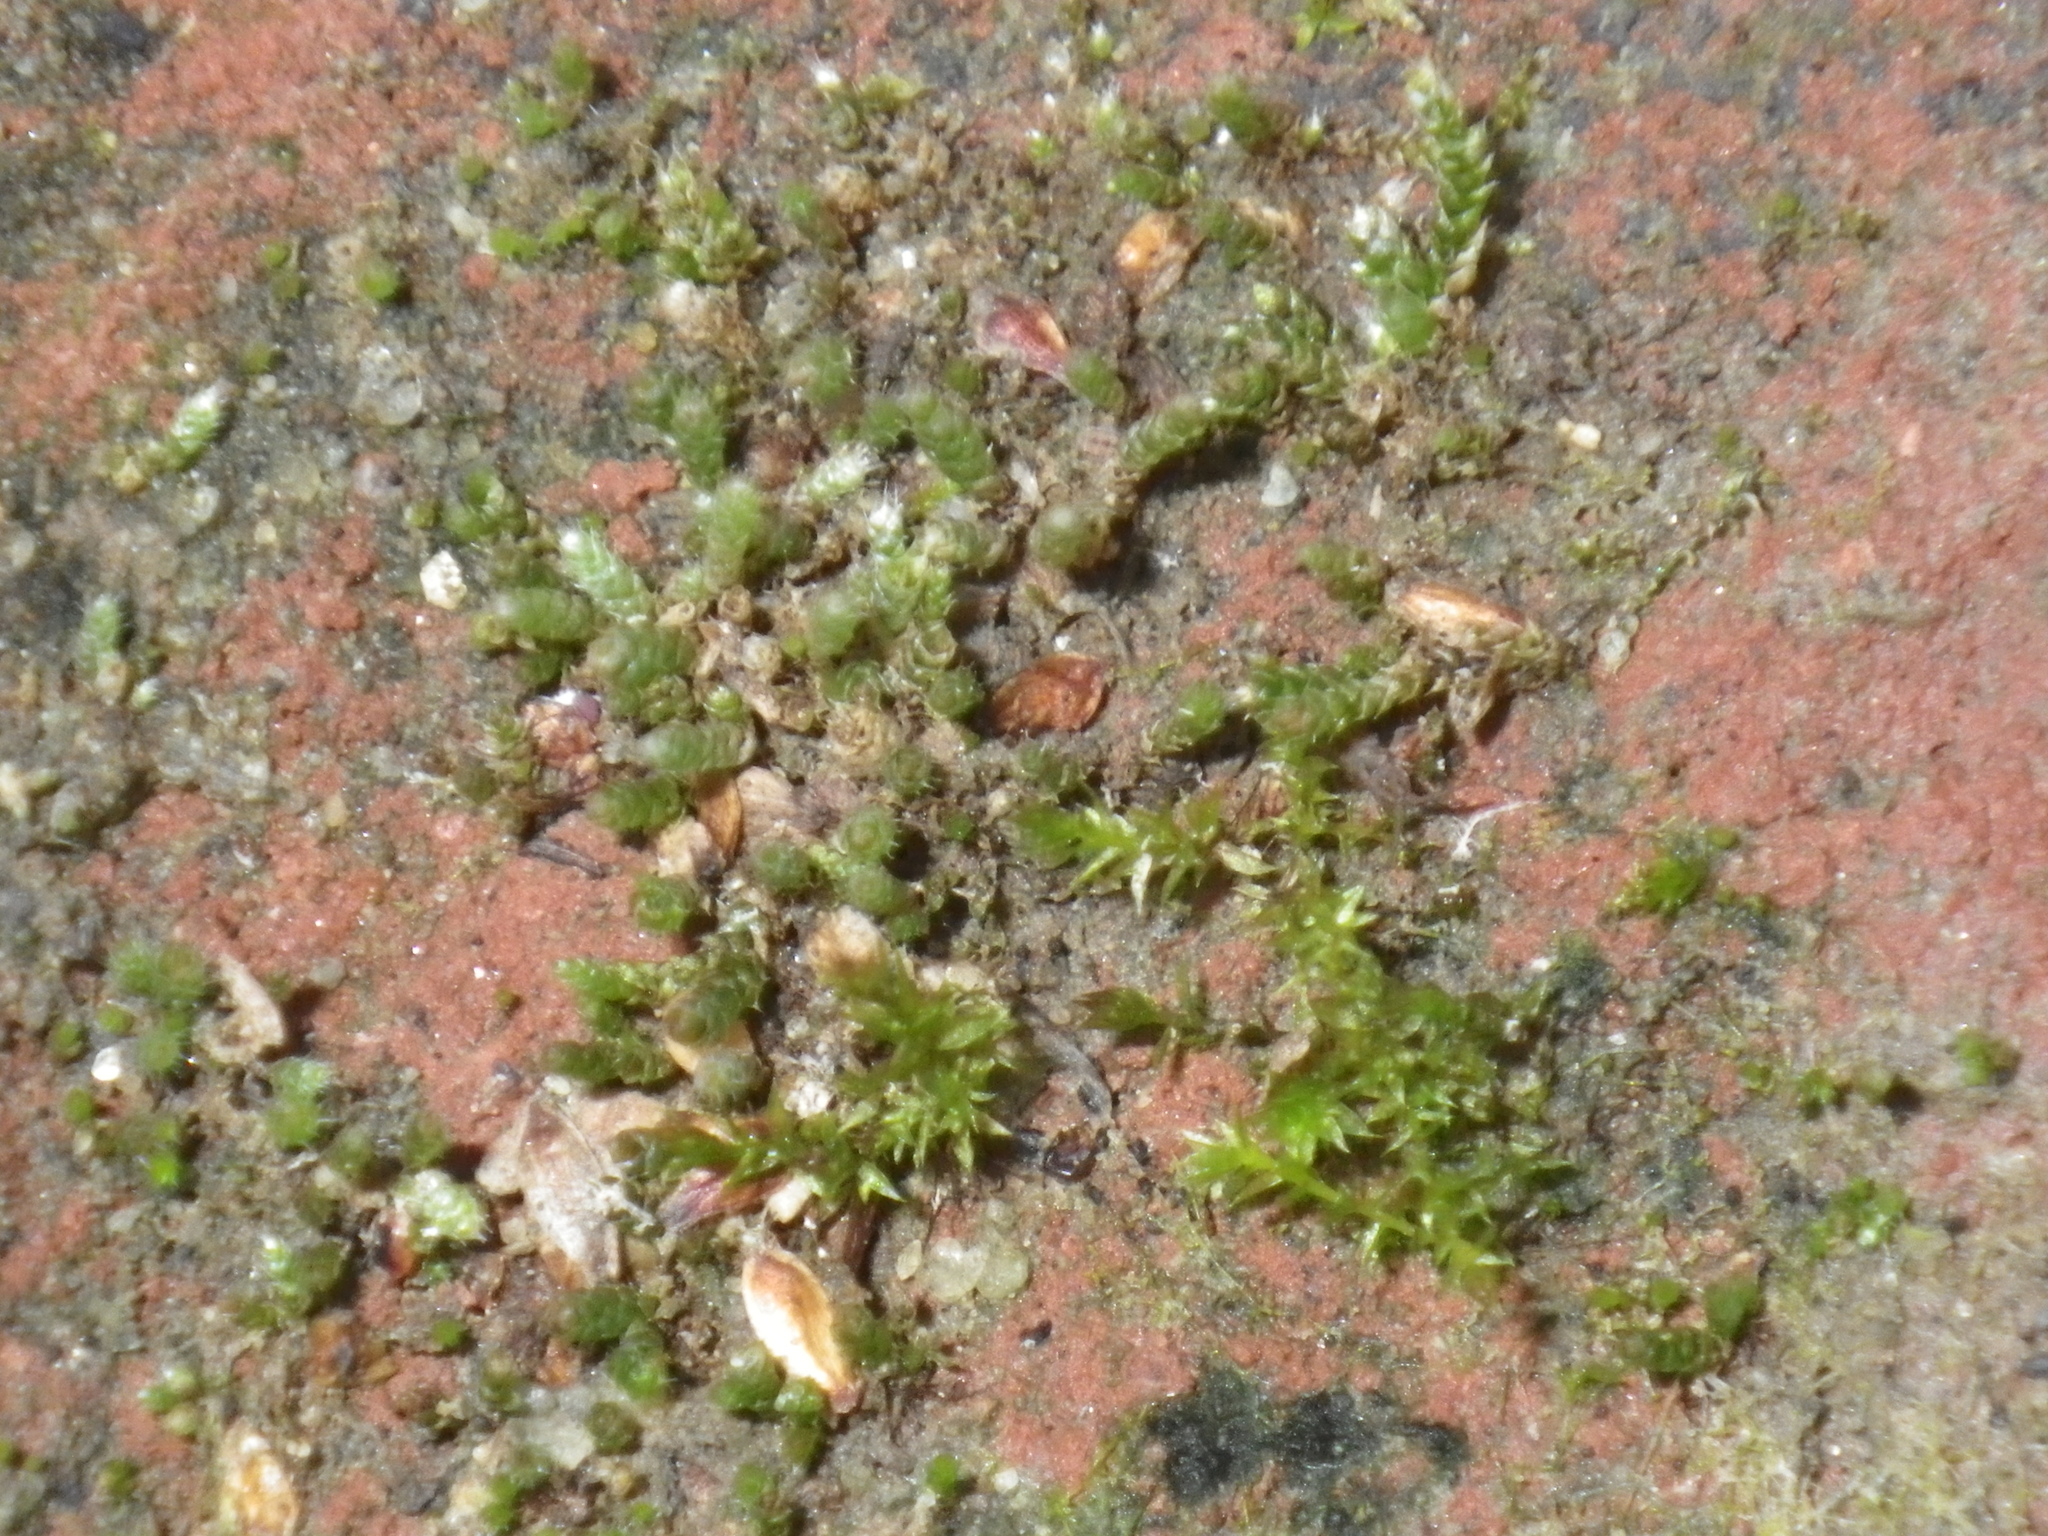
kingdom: Plantae
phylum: Bryophyta
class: Bryopsida
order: Bryales
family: Bryaceae
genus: Bryum
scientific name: Bryum argenteum
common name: Silver-moss
